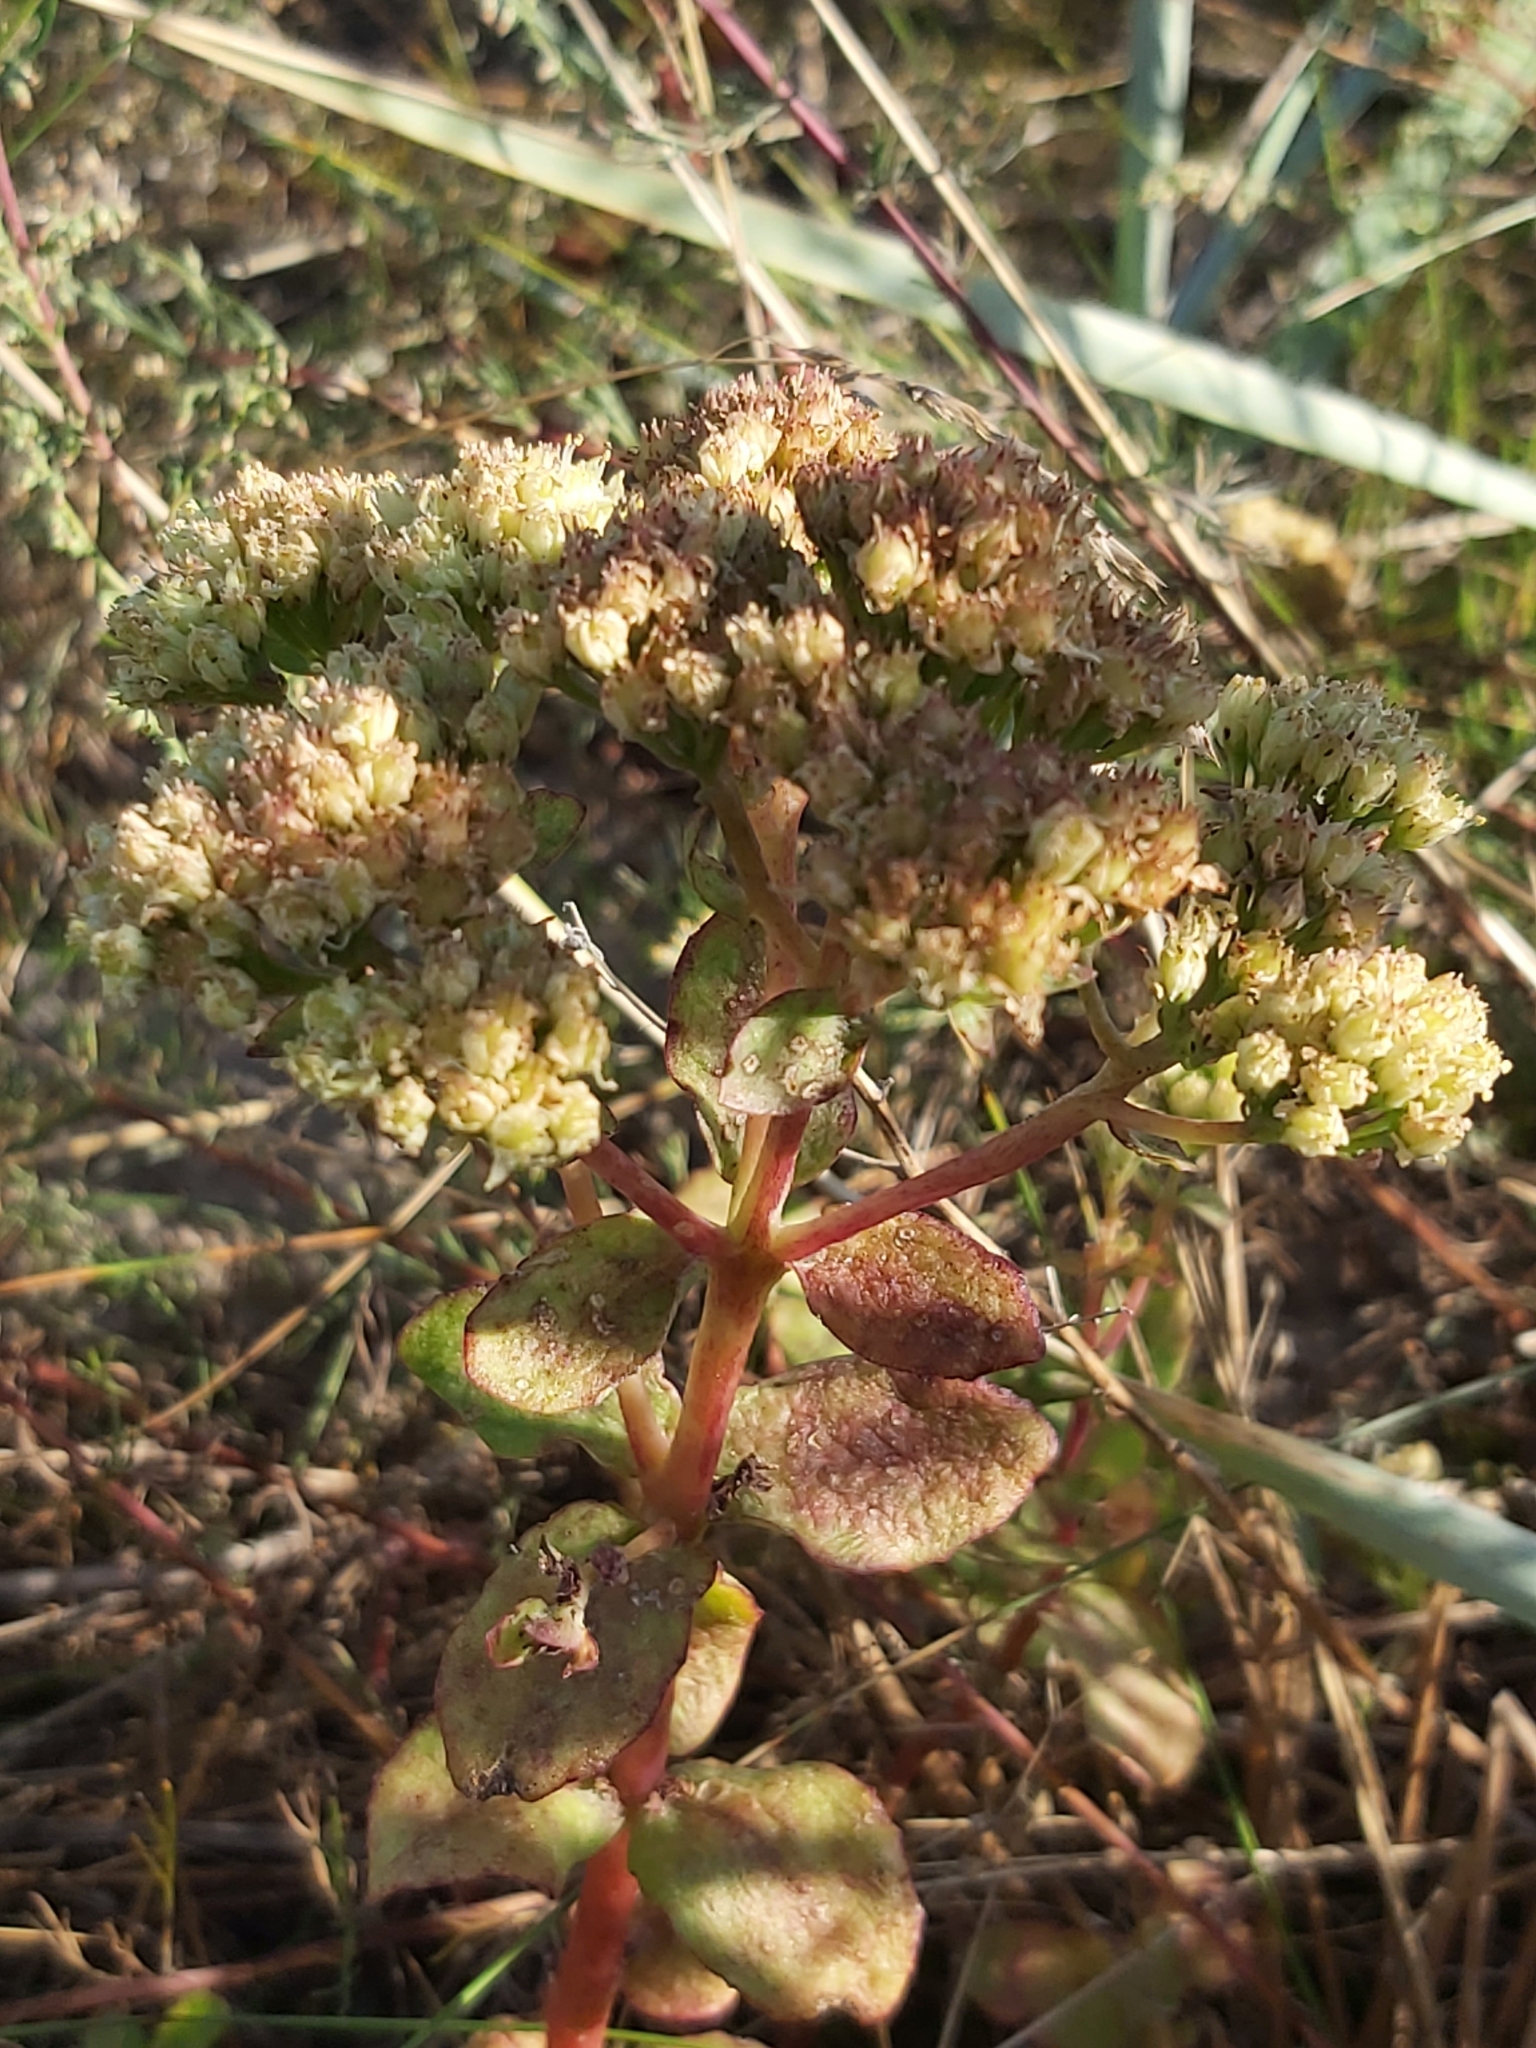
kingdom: Plantae
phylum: Tracheophyta
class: Magnoliopsida
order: Saxifragales
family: Crassulaceae
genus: Hylotelephium
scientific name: Hylotelephium maximum
